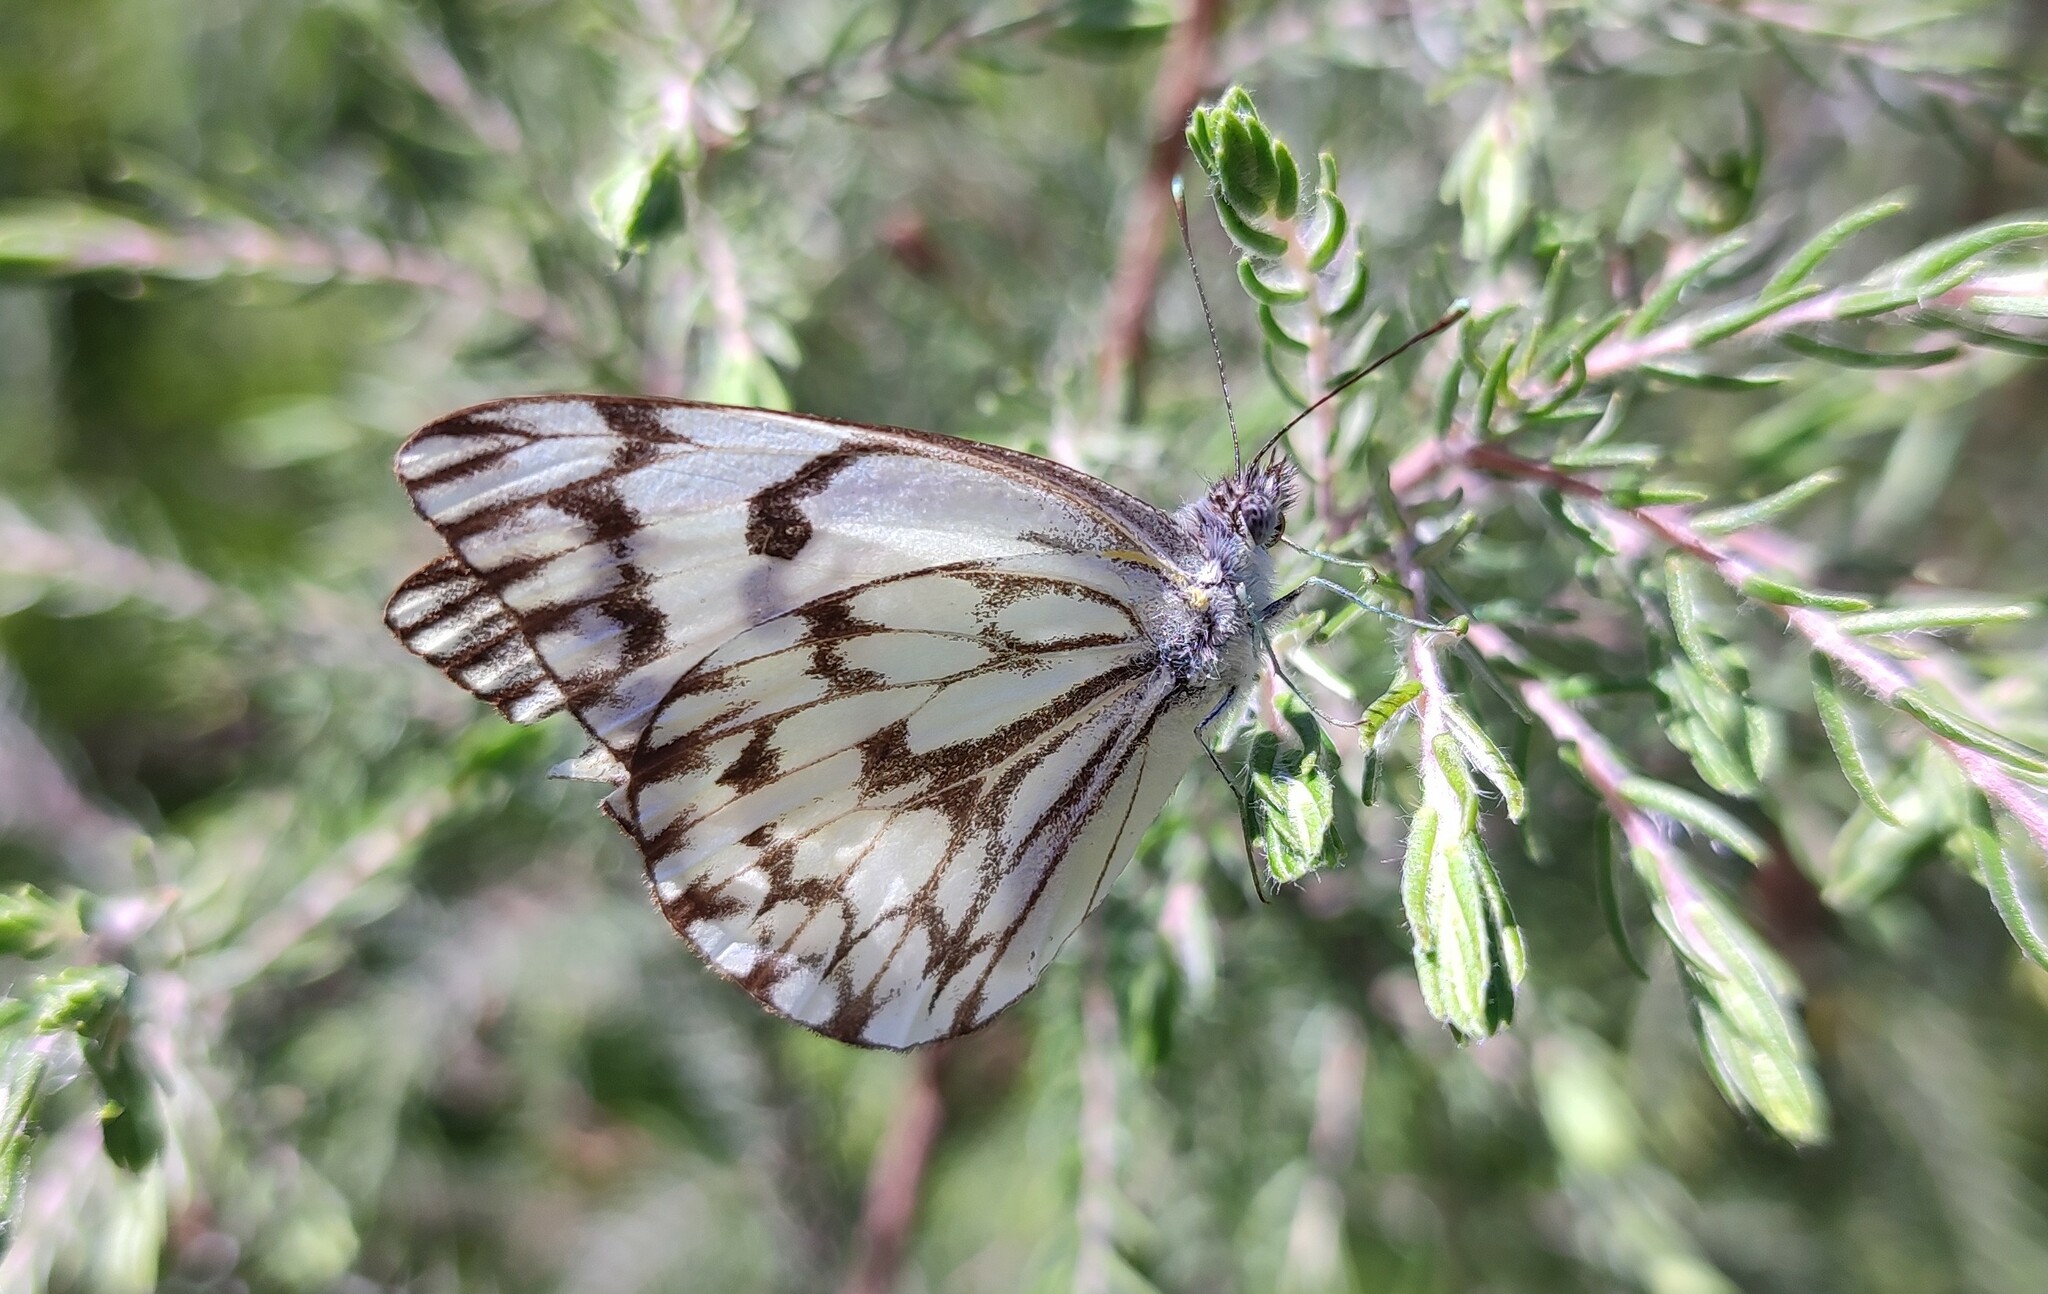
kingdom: Animalia
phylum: Arthropoda
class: Insecta
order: Lepidoptera
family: Pieridae
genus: Belenois
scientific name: Belenois gidica
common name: Pointed caper white
